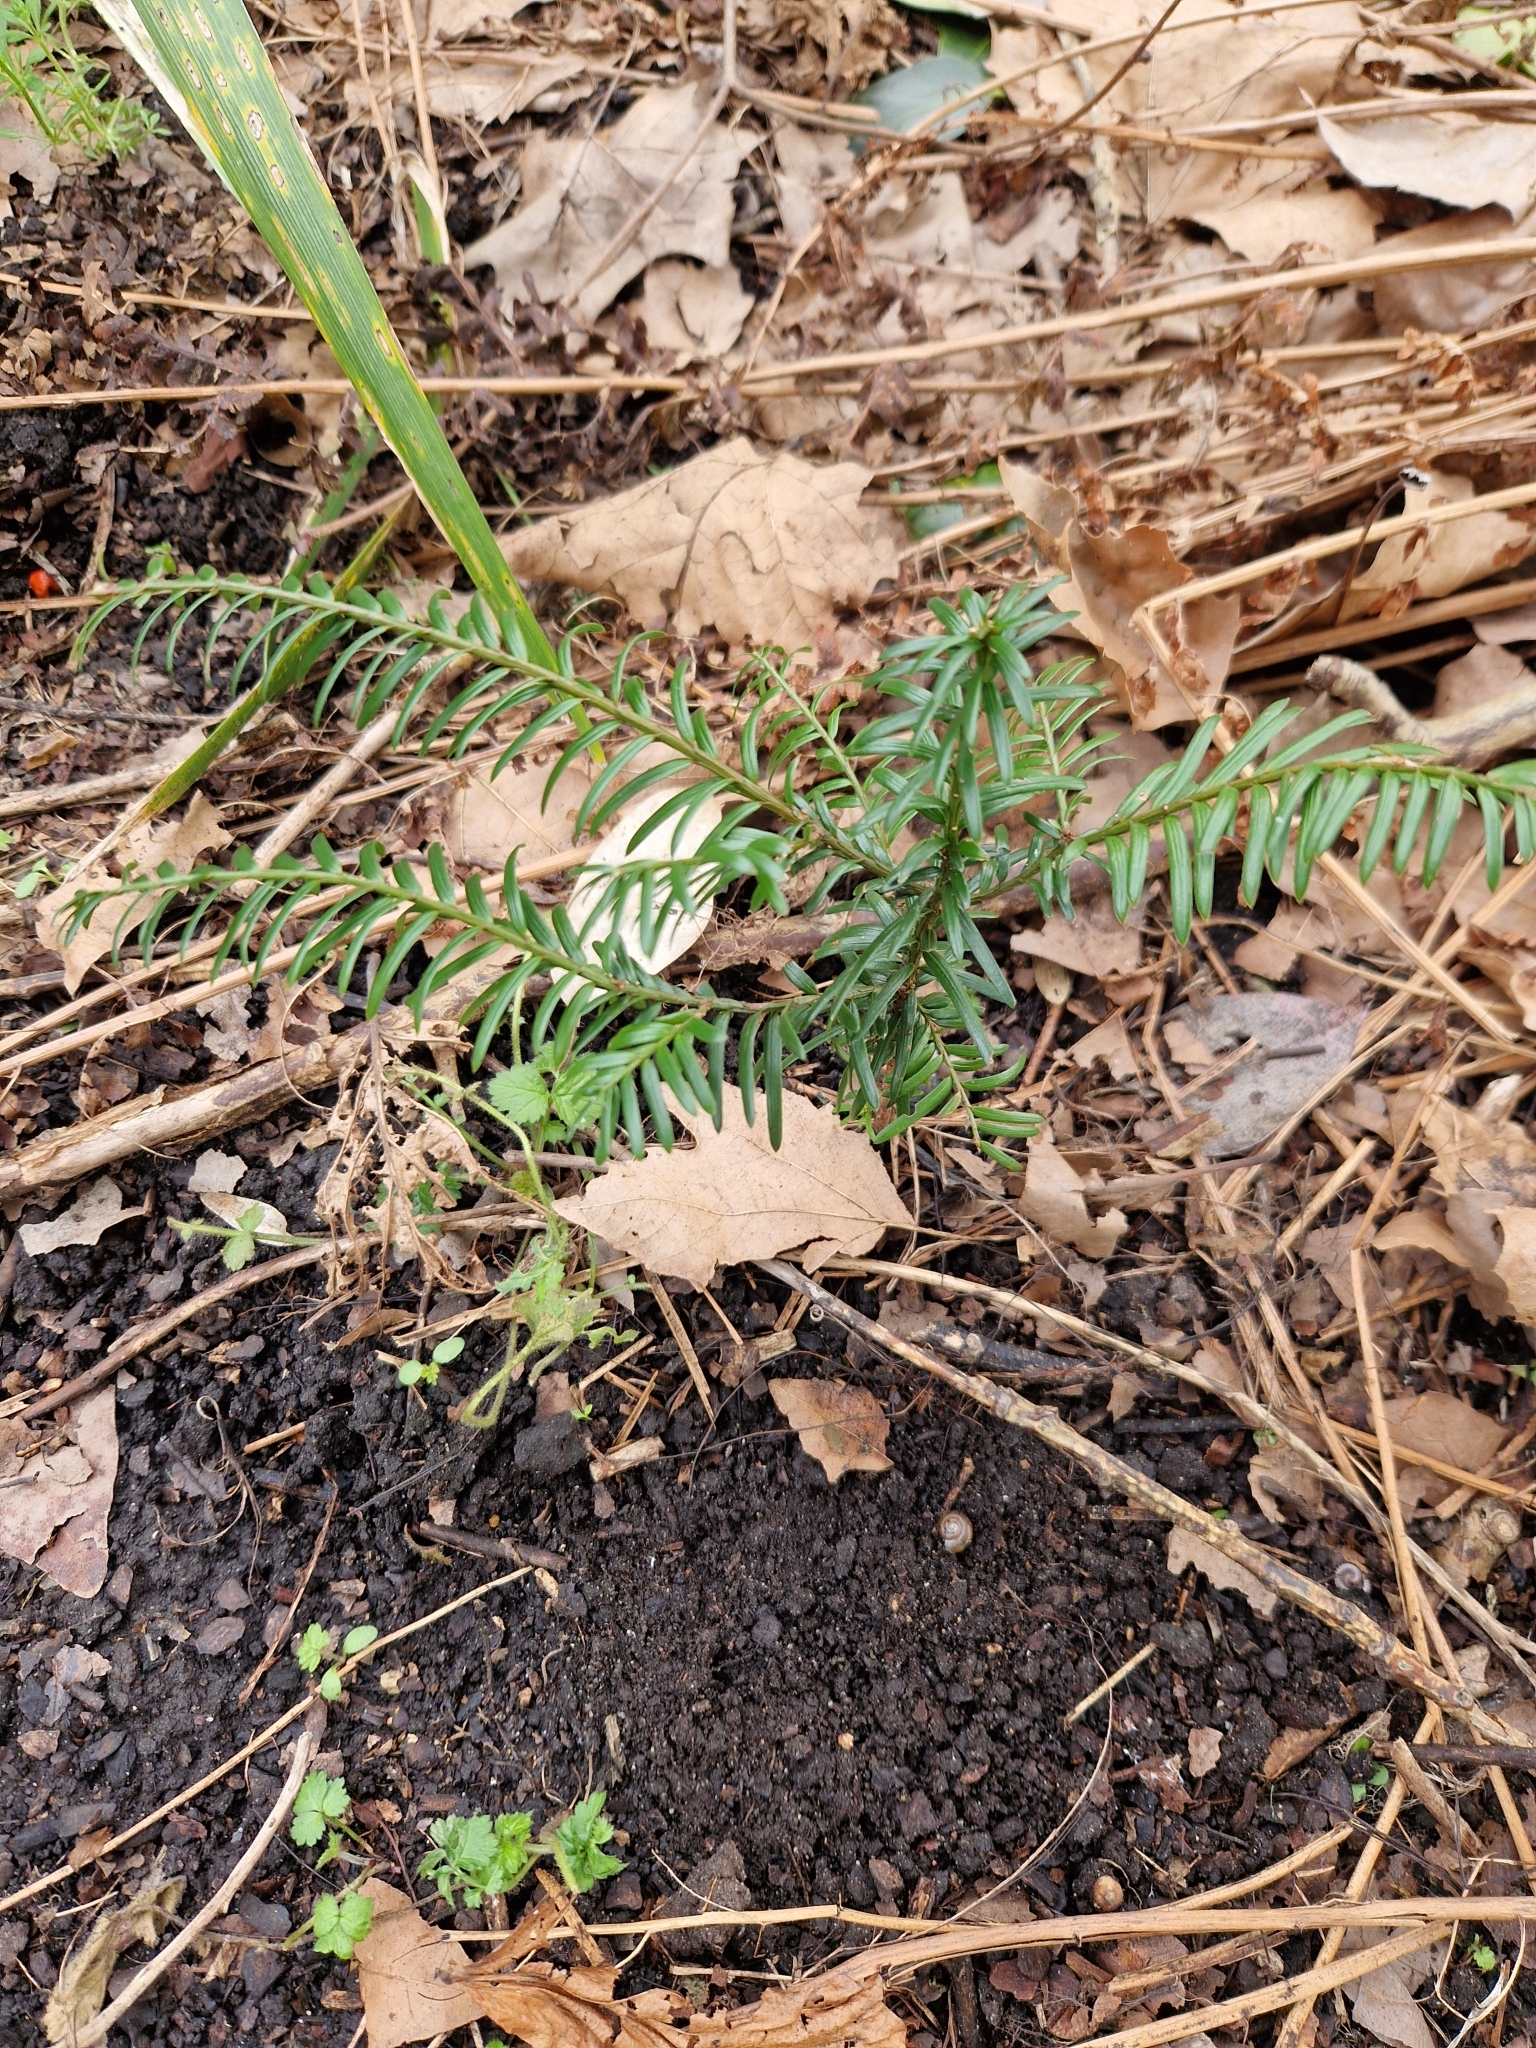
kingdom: Plantae
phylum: Tracheophyta
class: Pinopsida
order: Pinales
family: Taxaceae
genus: Taxus
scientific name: Taxus baccata
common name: Yew
